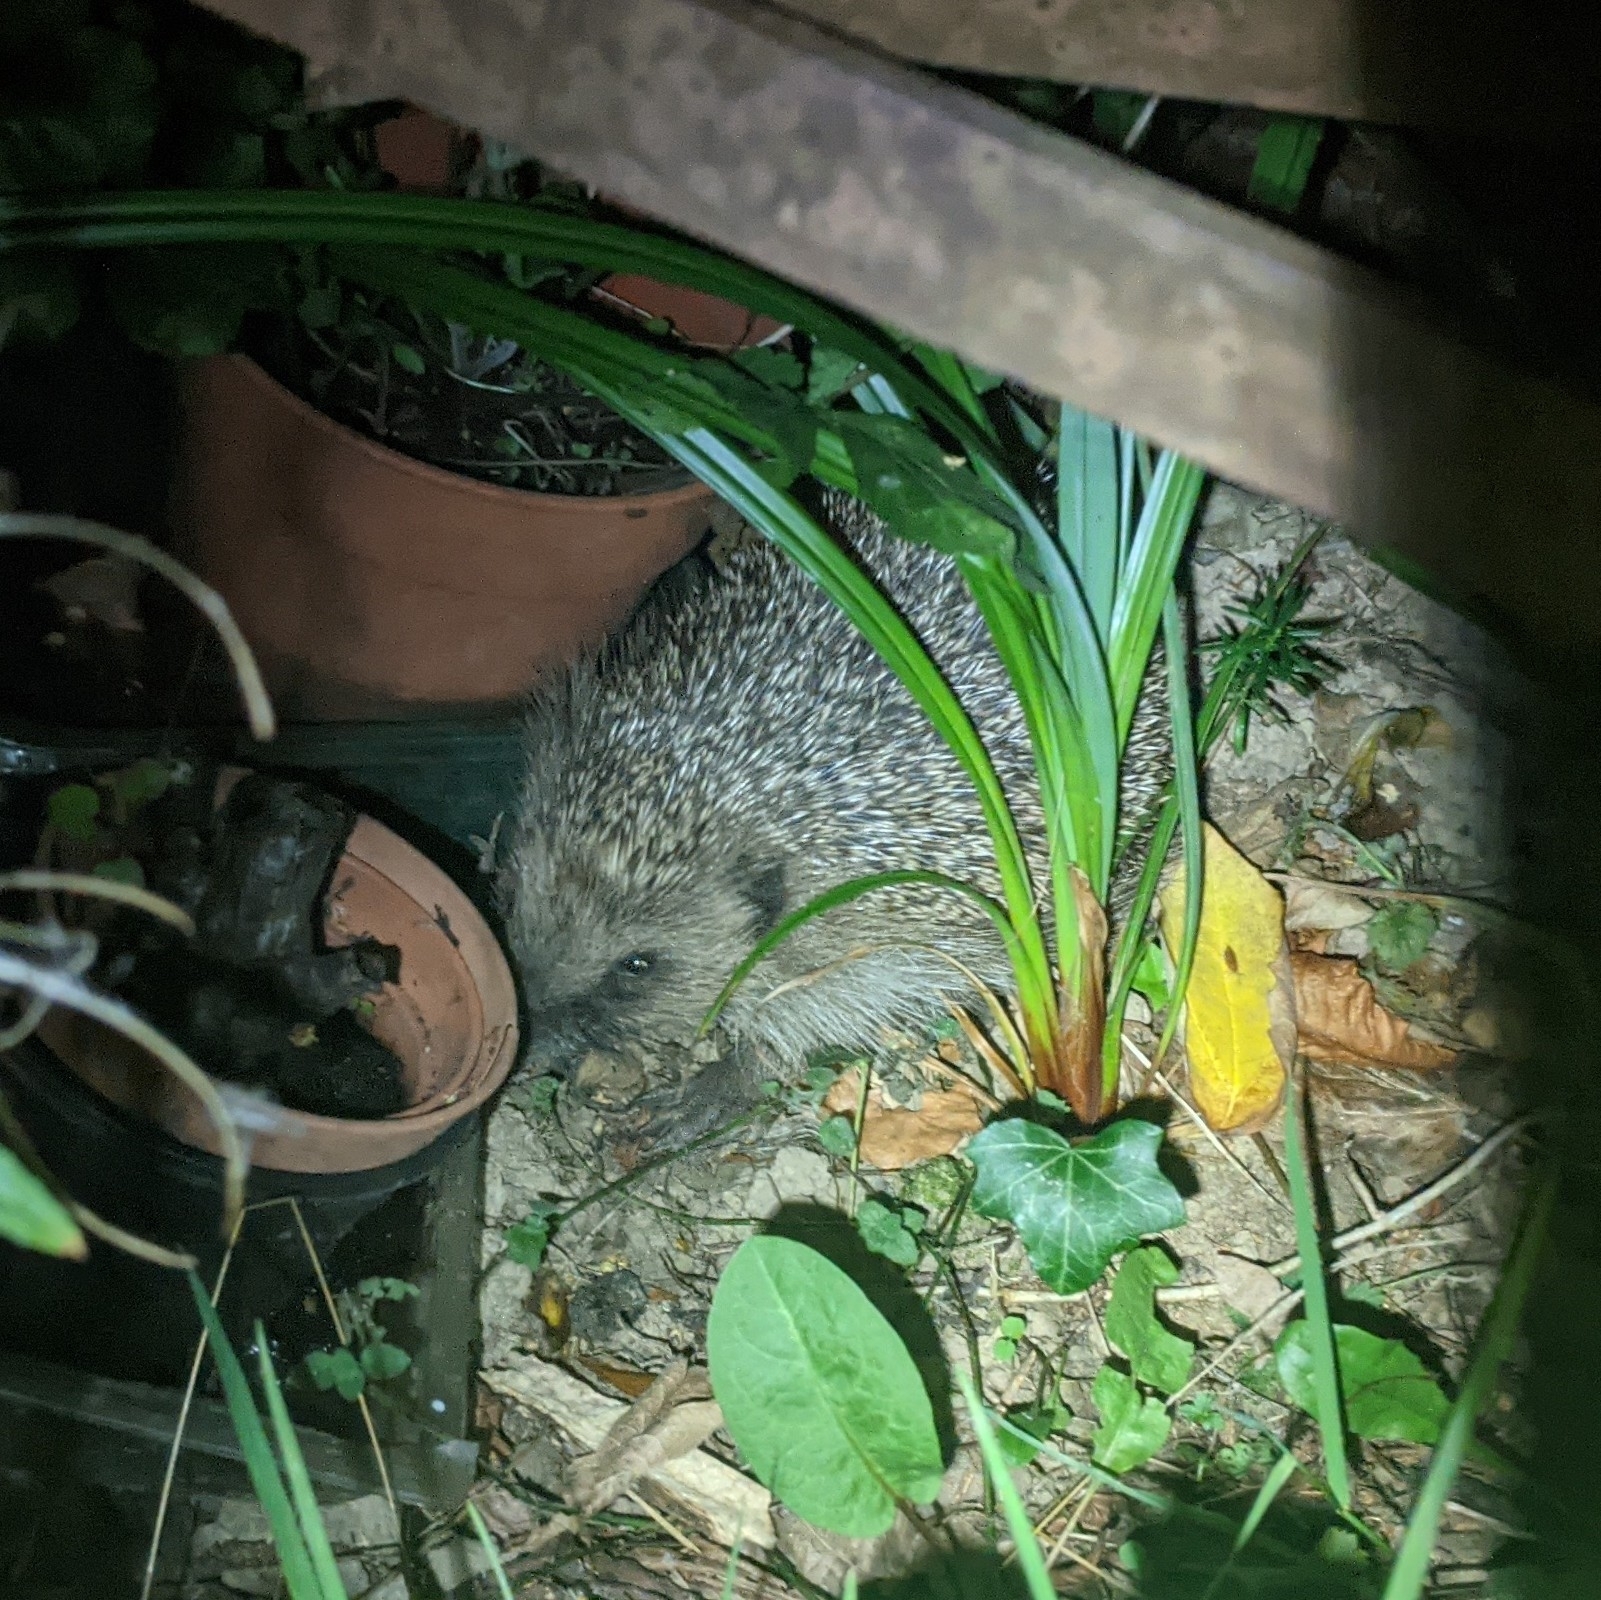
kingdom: Animalia
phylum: Chordata
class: Mammalia
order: Erinaceomorpha
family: Erinaceidae
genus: Erinaceus
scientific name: Erinaceus europaeus
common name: West european hedgehog
